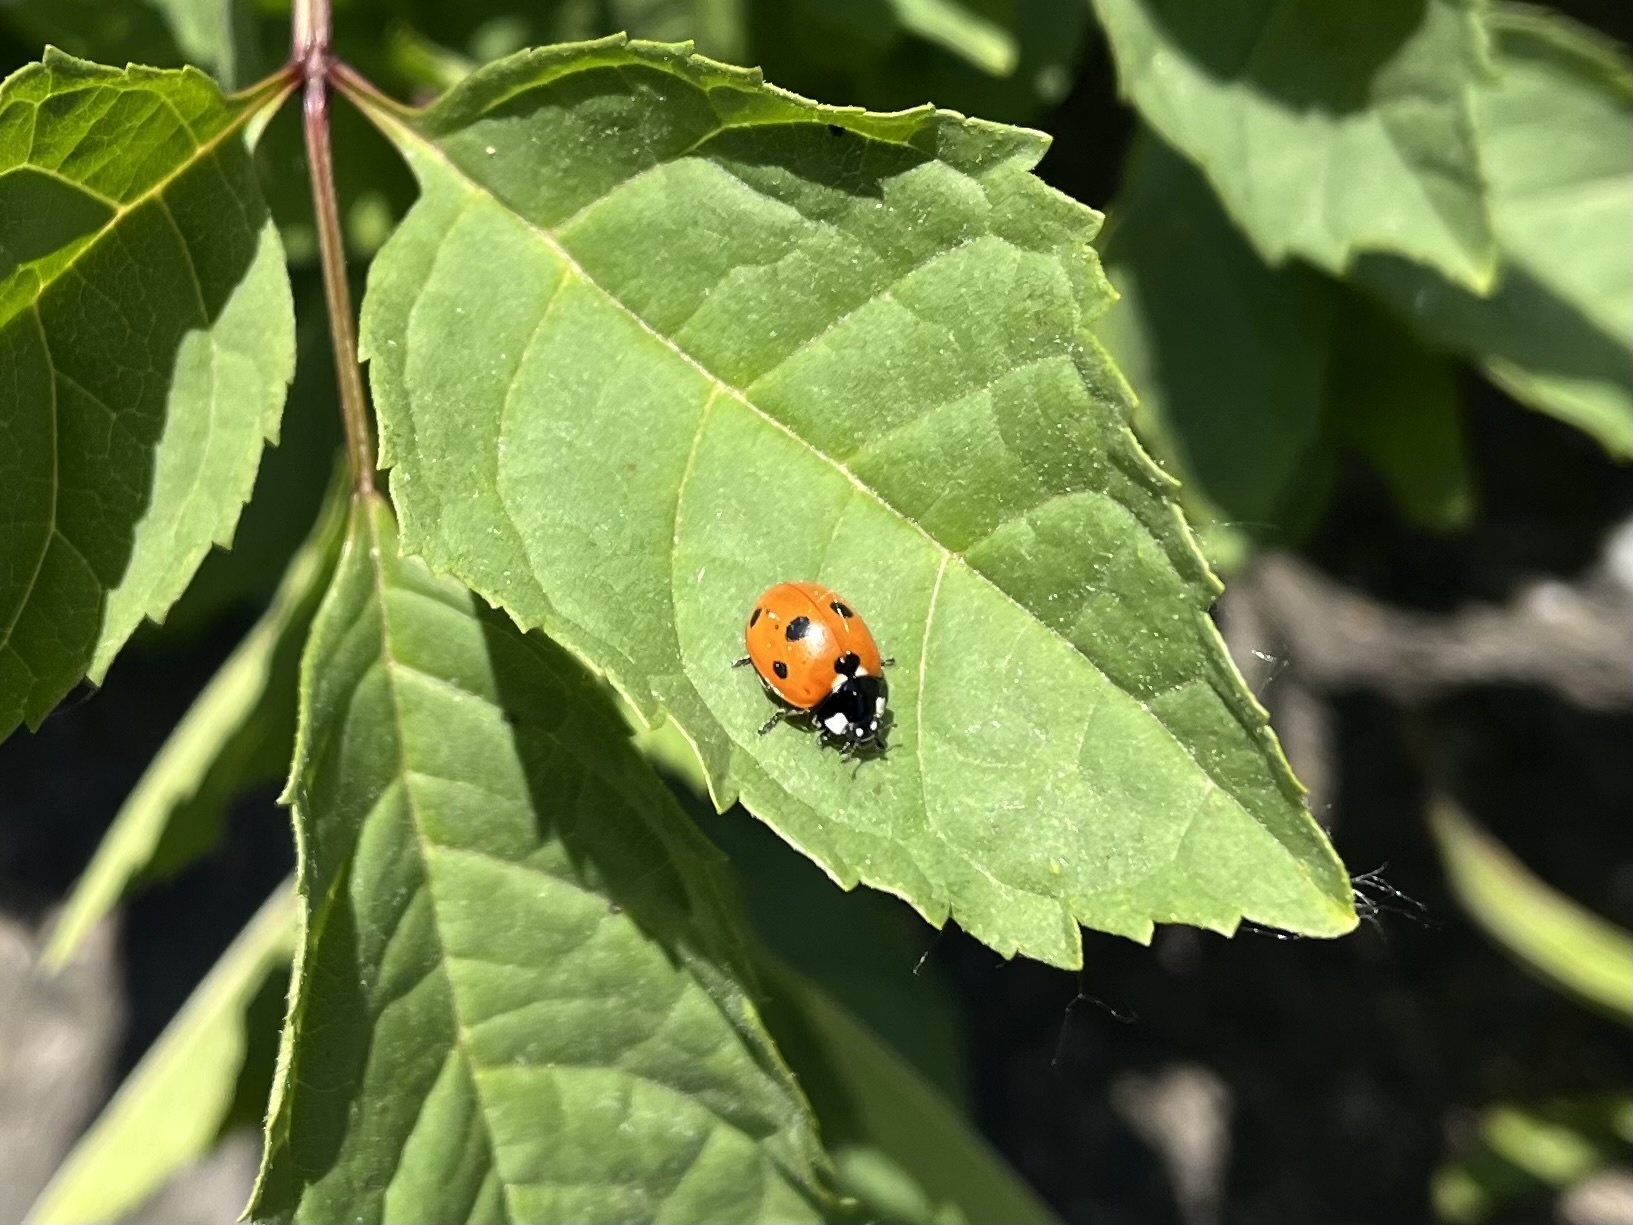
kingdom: Animalia
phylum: Arthropoda
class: Insecta
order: Coleoptera
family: Coccinellidae
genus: Coccinella
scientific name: Coccinella septempunctata
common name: Sevenspotted lady beetle
